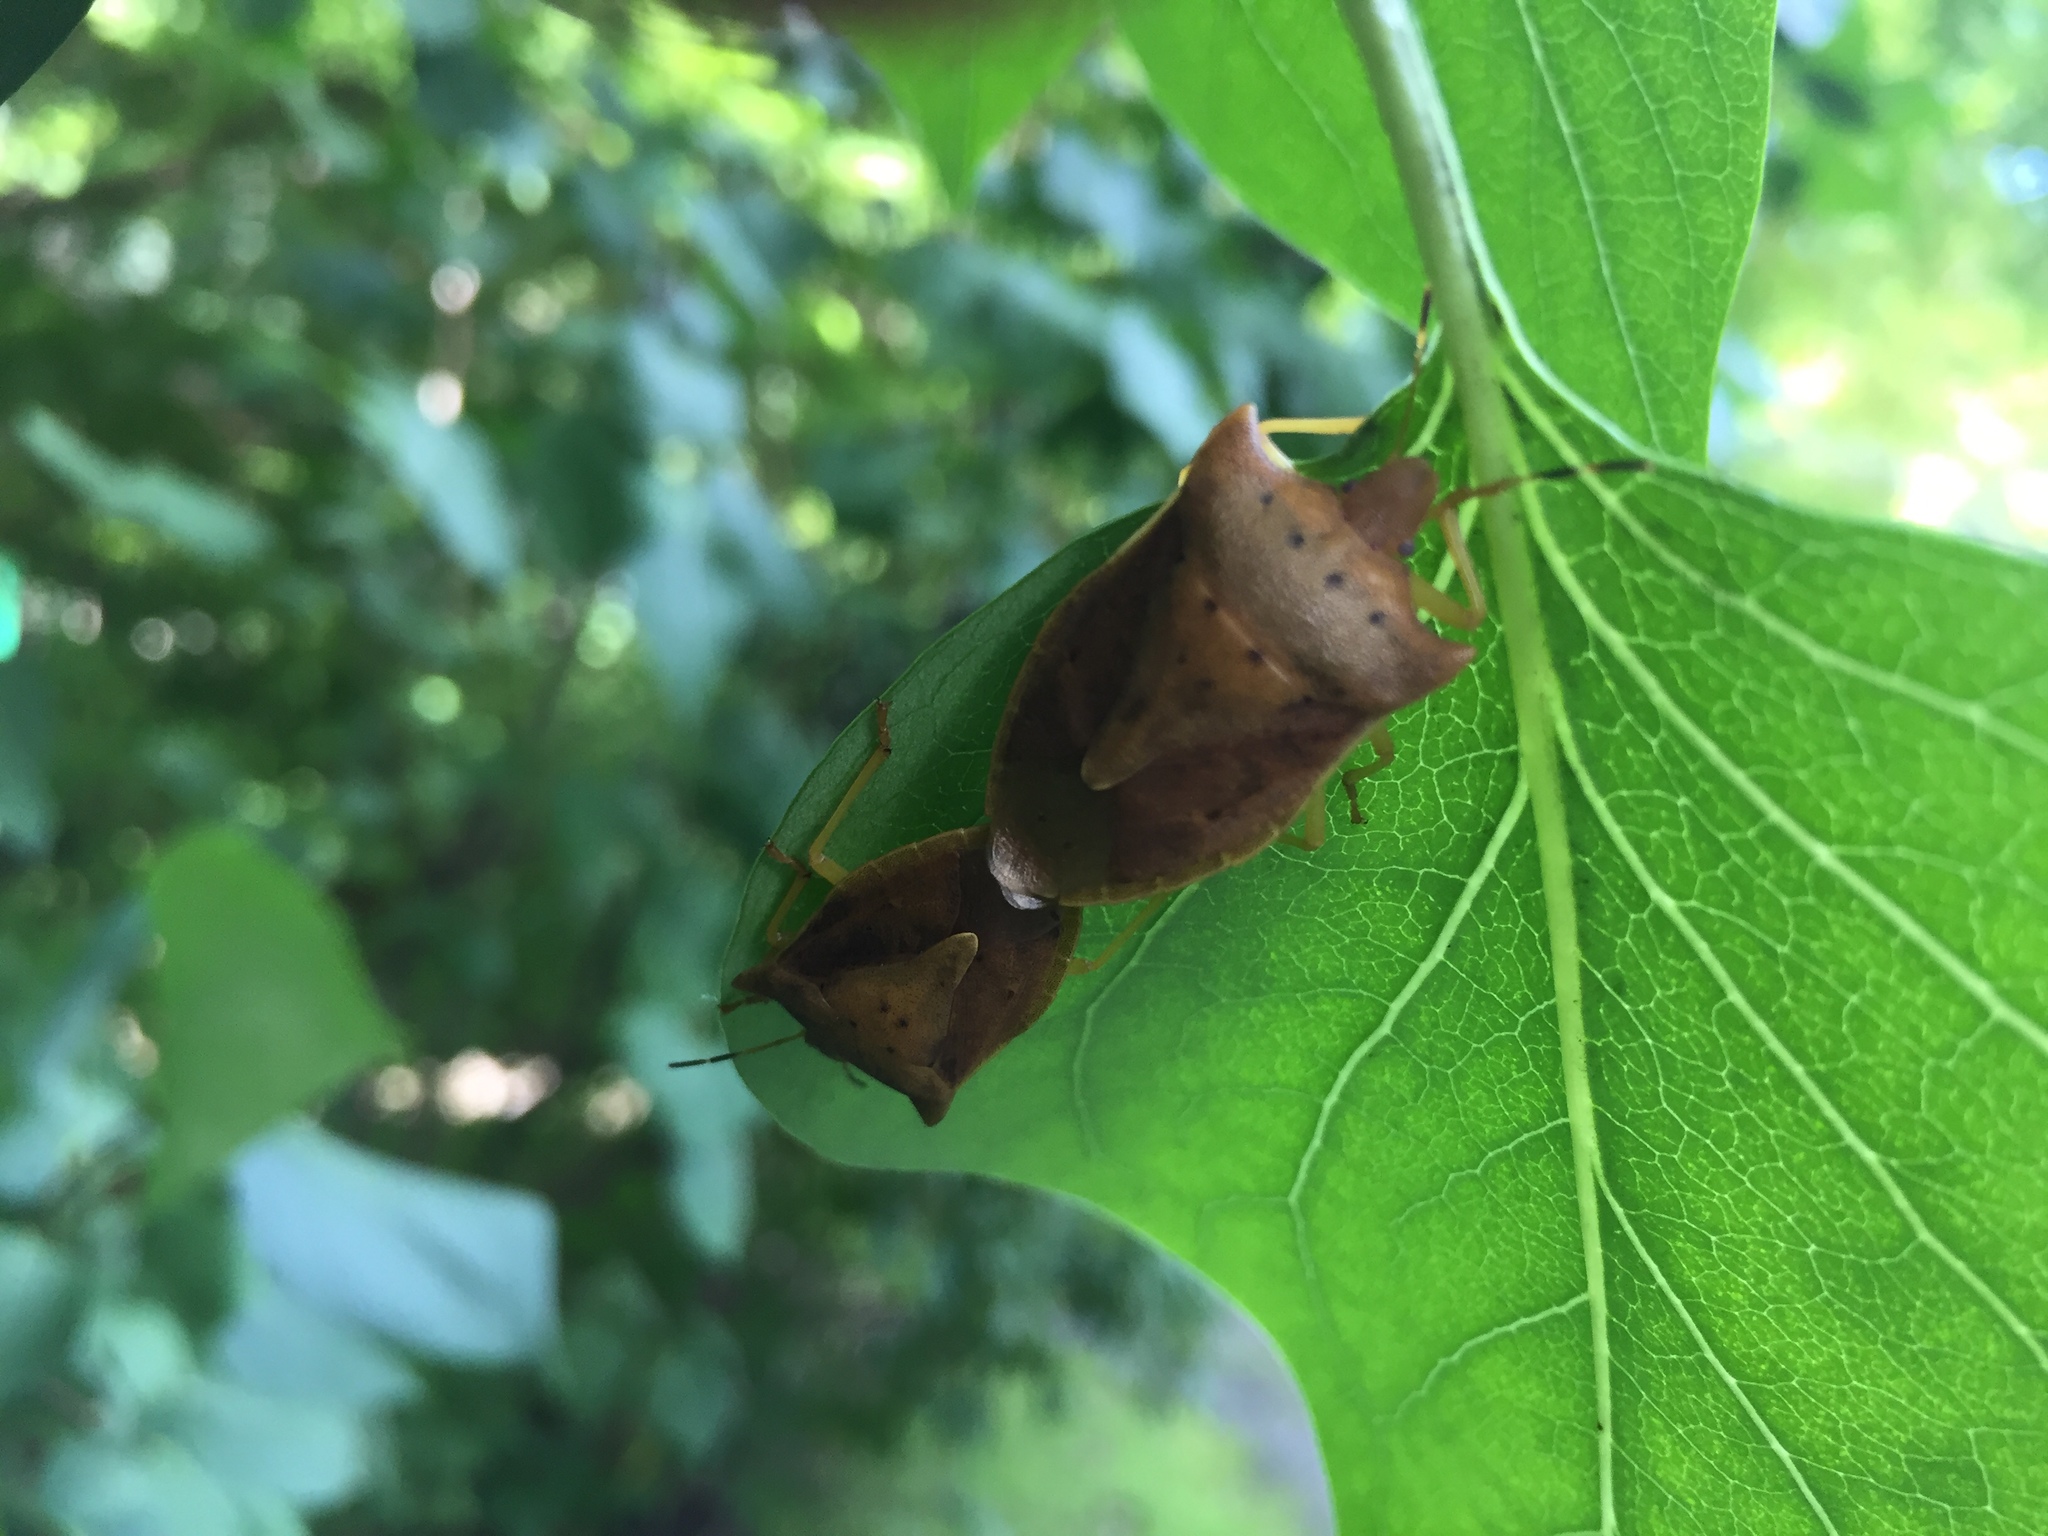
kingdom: Animalia
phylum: Arthropoda
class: Insecta
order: Hemiptera
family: Pentatomidae
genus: Lelia
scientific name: Lelia decempunctata
